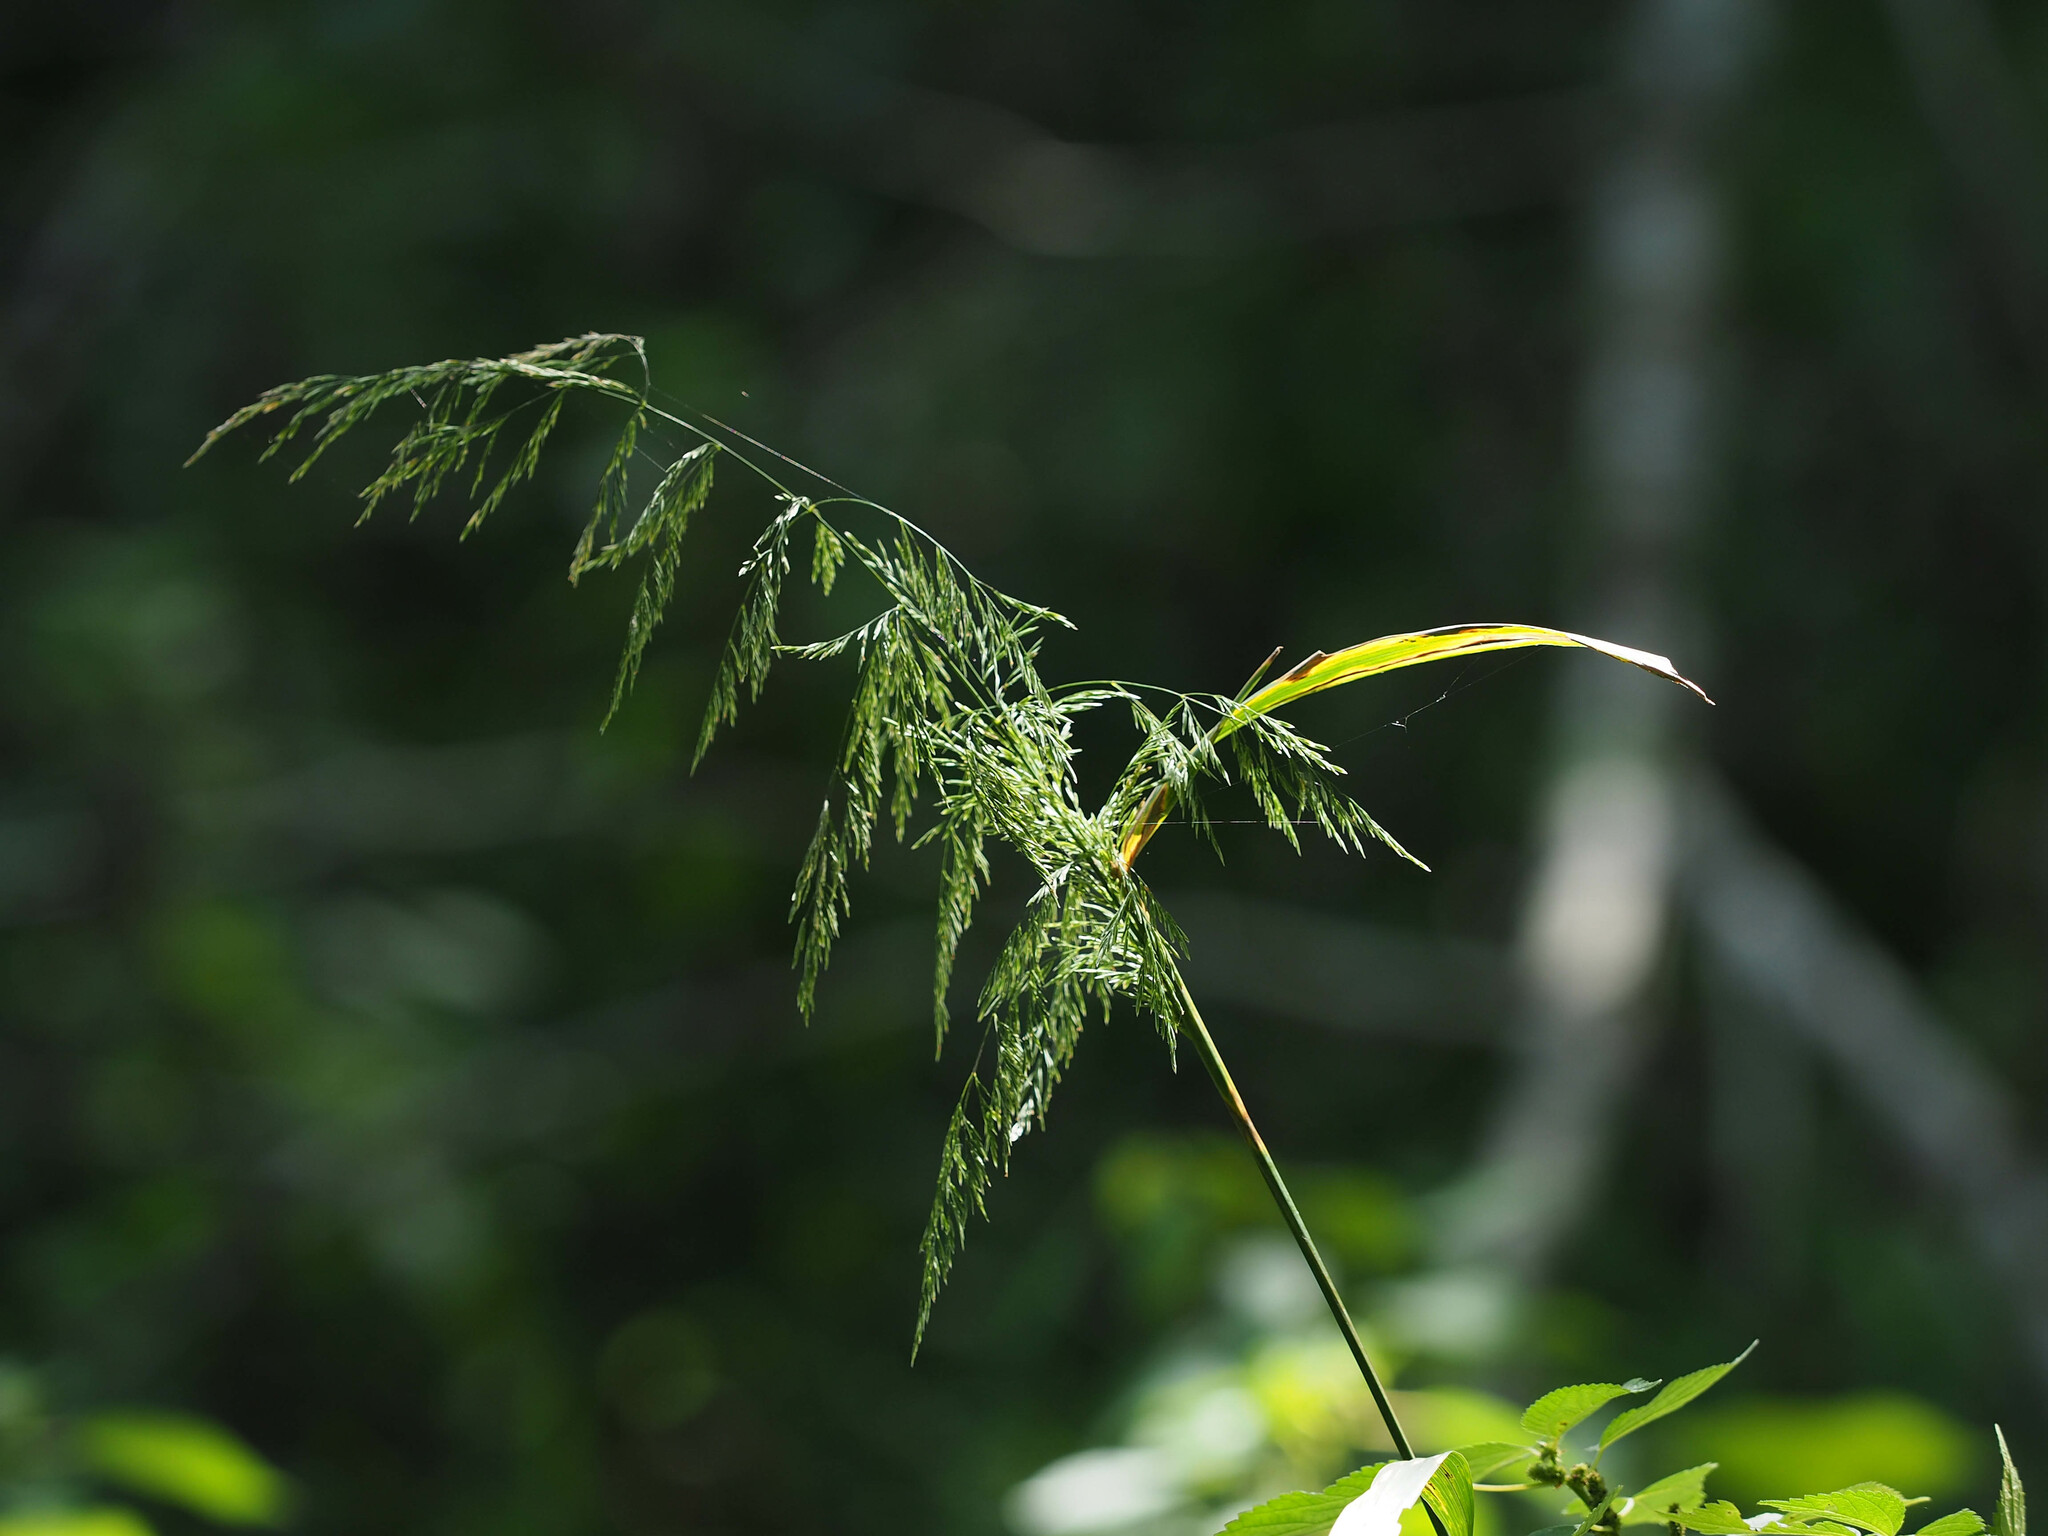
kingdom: Plantae
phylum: Tracheophyta
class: Liliopsida
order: Poales
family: Poaceae
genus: Cinna
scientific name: Cinna arundinacea
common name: Stout woodreed
